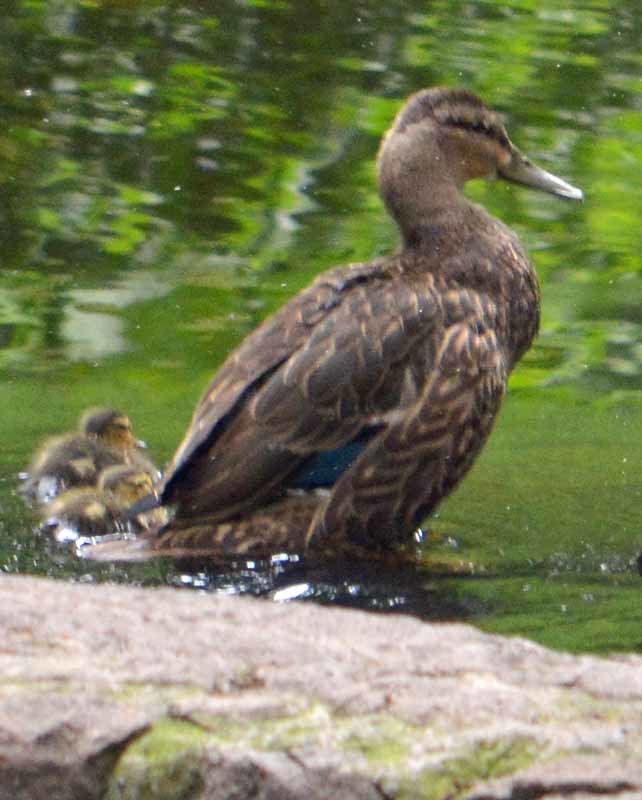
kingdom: Animalia
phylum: Chordata
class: Aves
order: Anseriformes
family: Anatidae
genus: Anas
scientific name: Anas diazi
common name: Mexican duck
